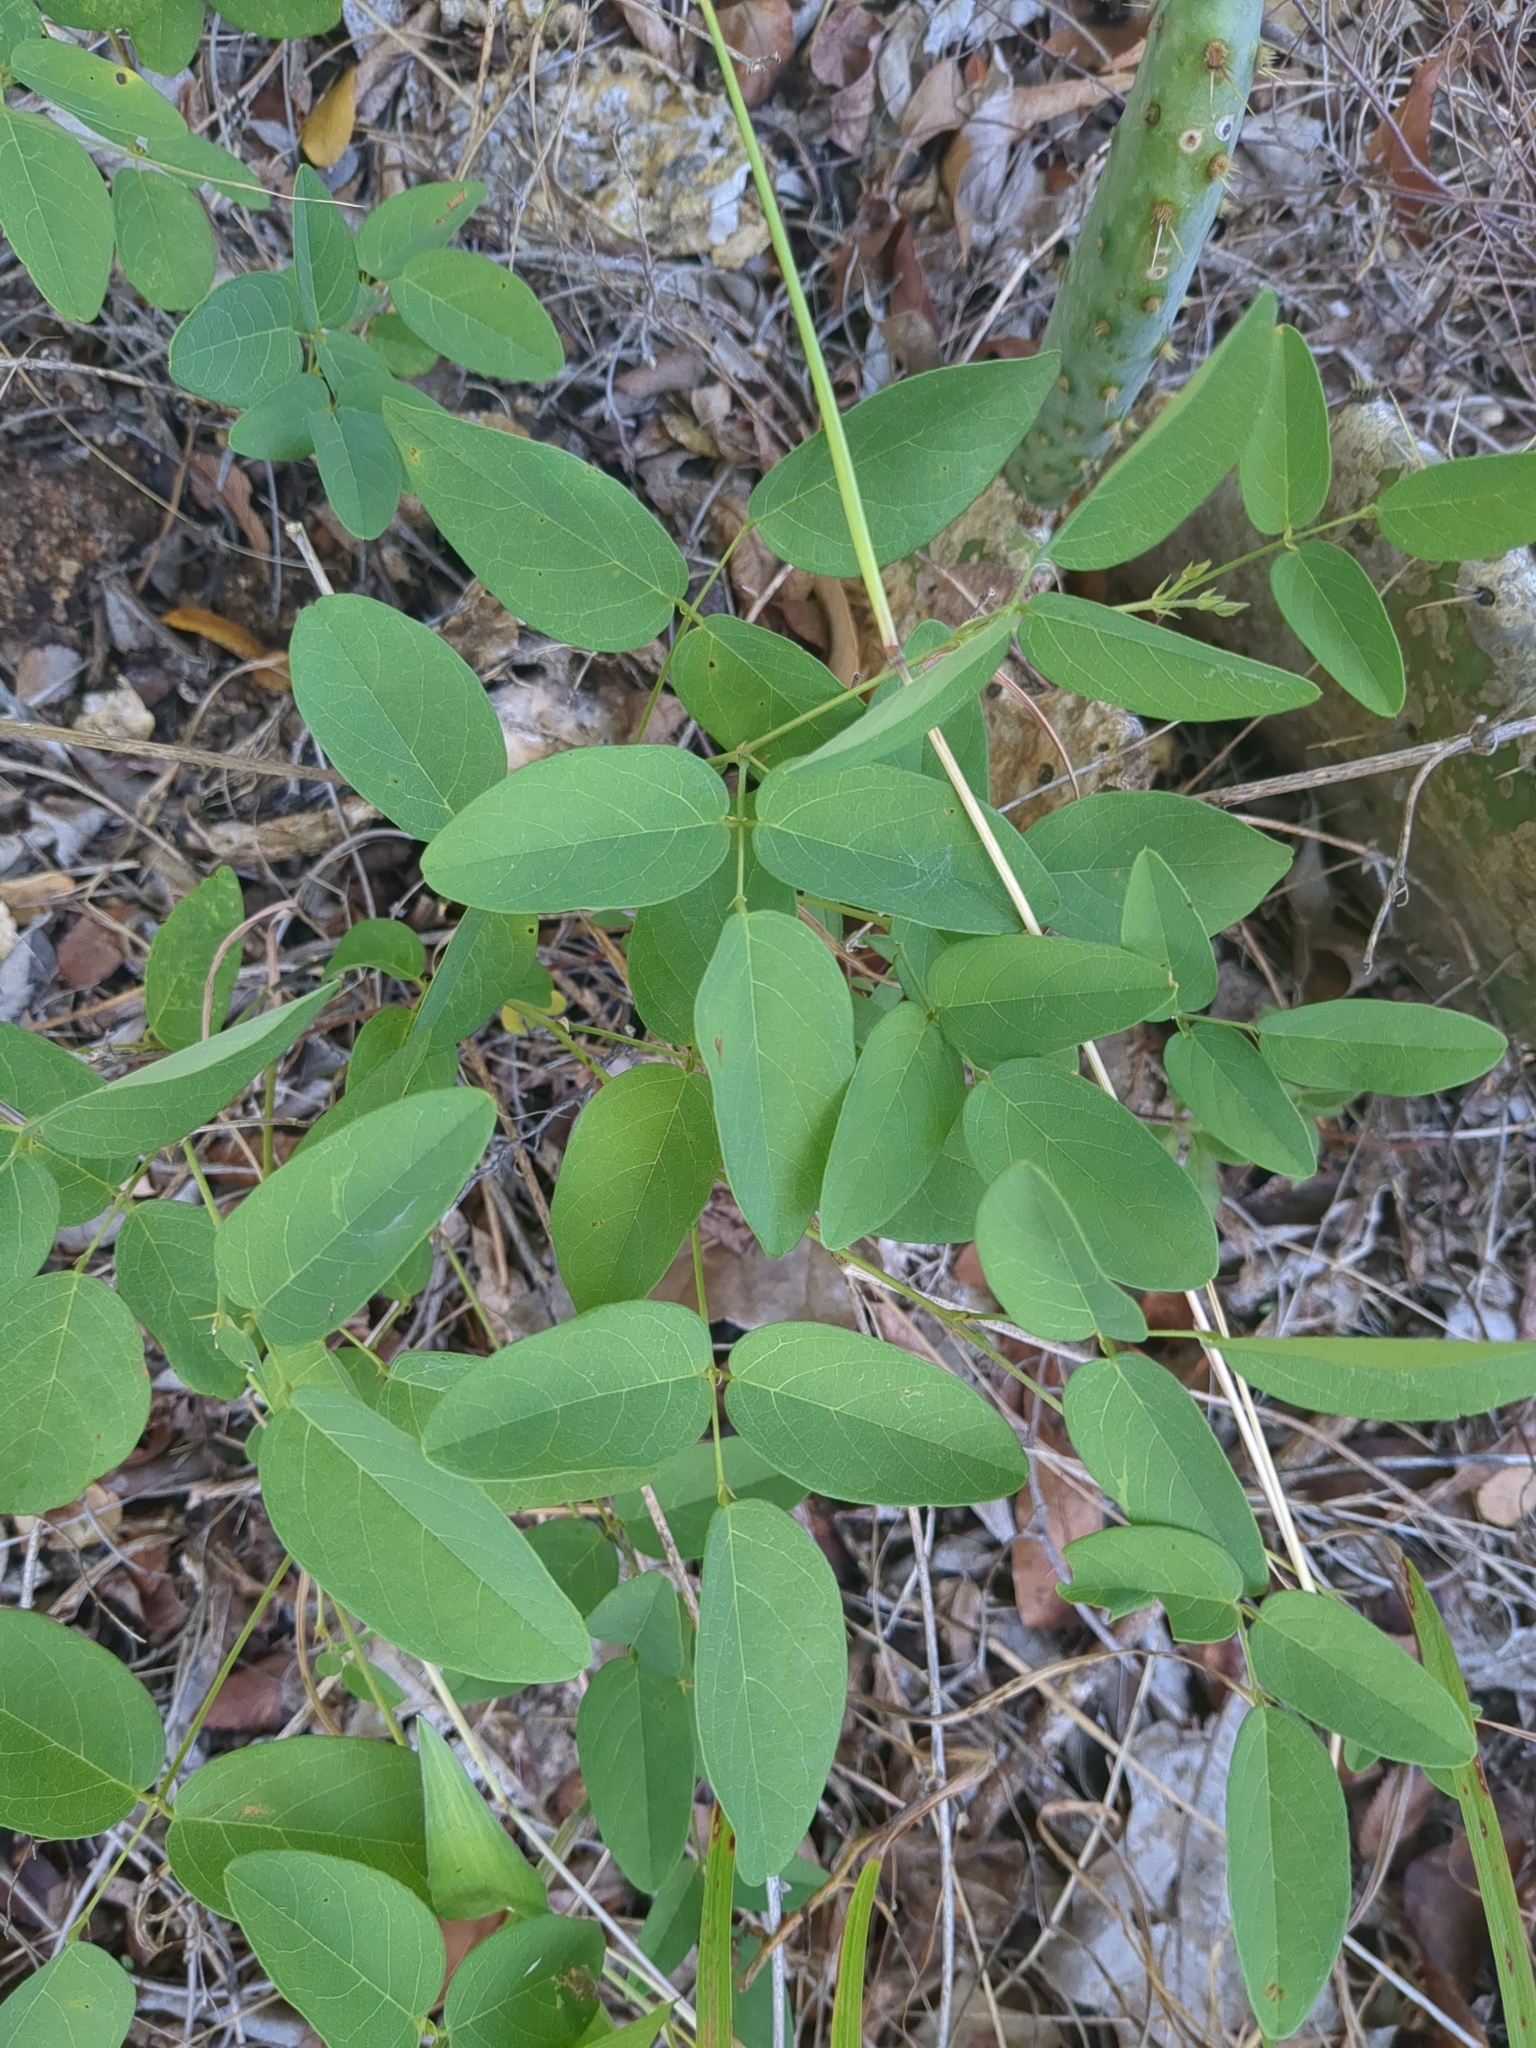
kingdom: Plantae
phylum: Tracheophyta
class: Magnoliopsida
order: Fabales
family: Fabaceae
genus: Clitoria
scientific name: Clitoria mariana
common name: Butterfly-pea
